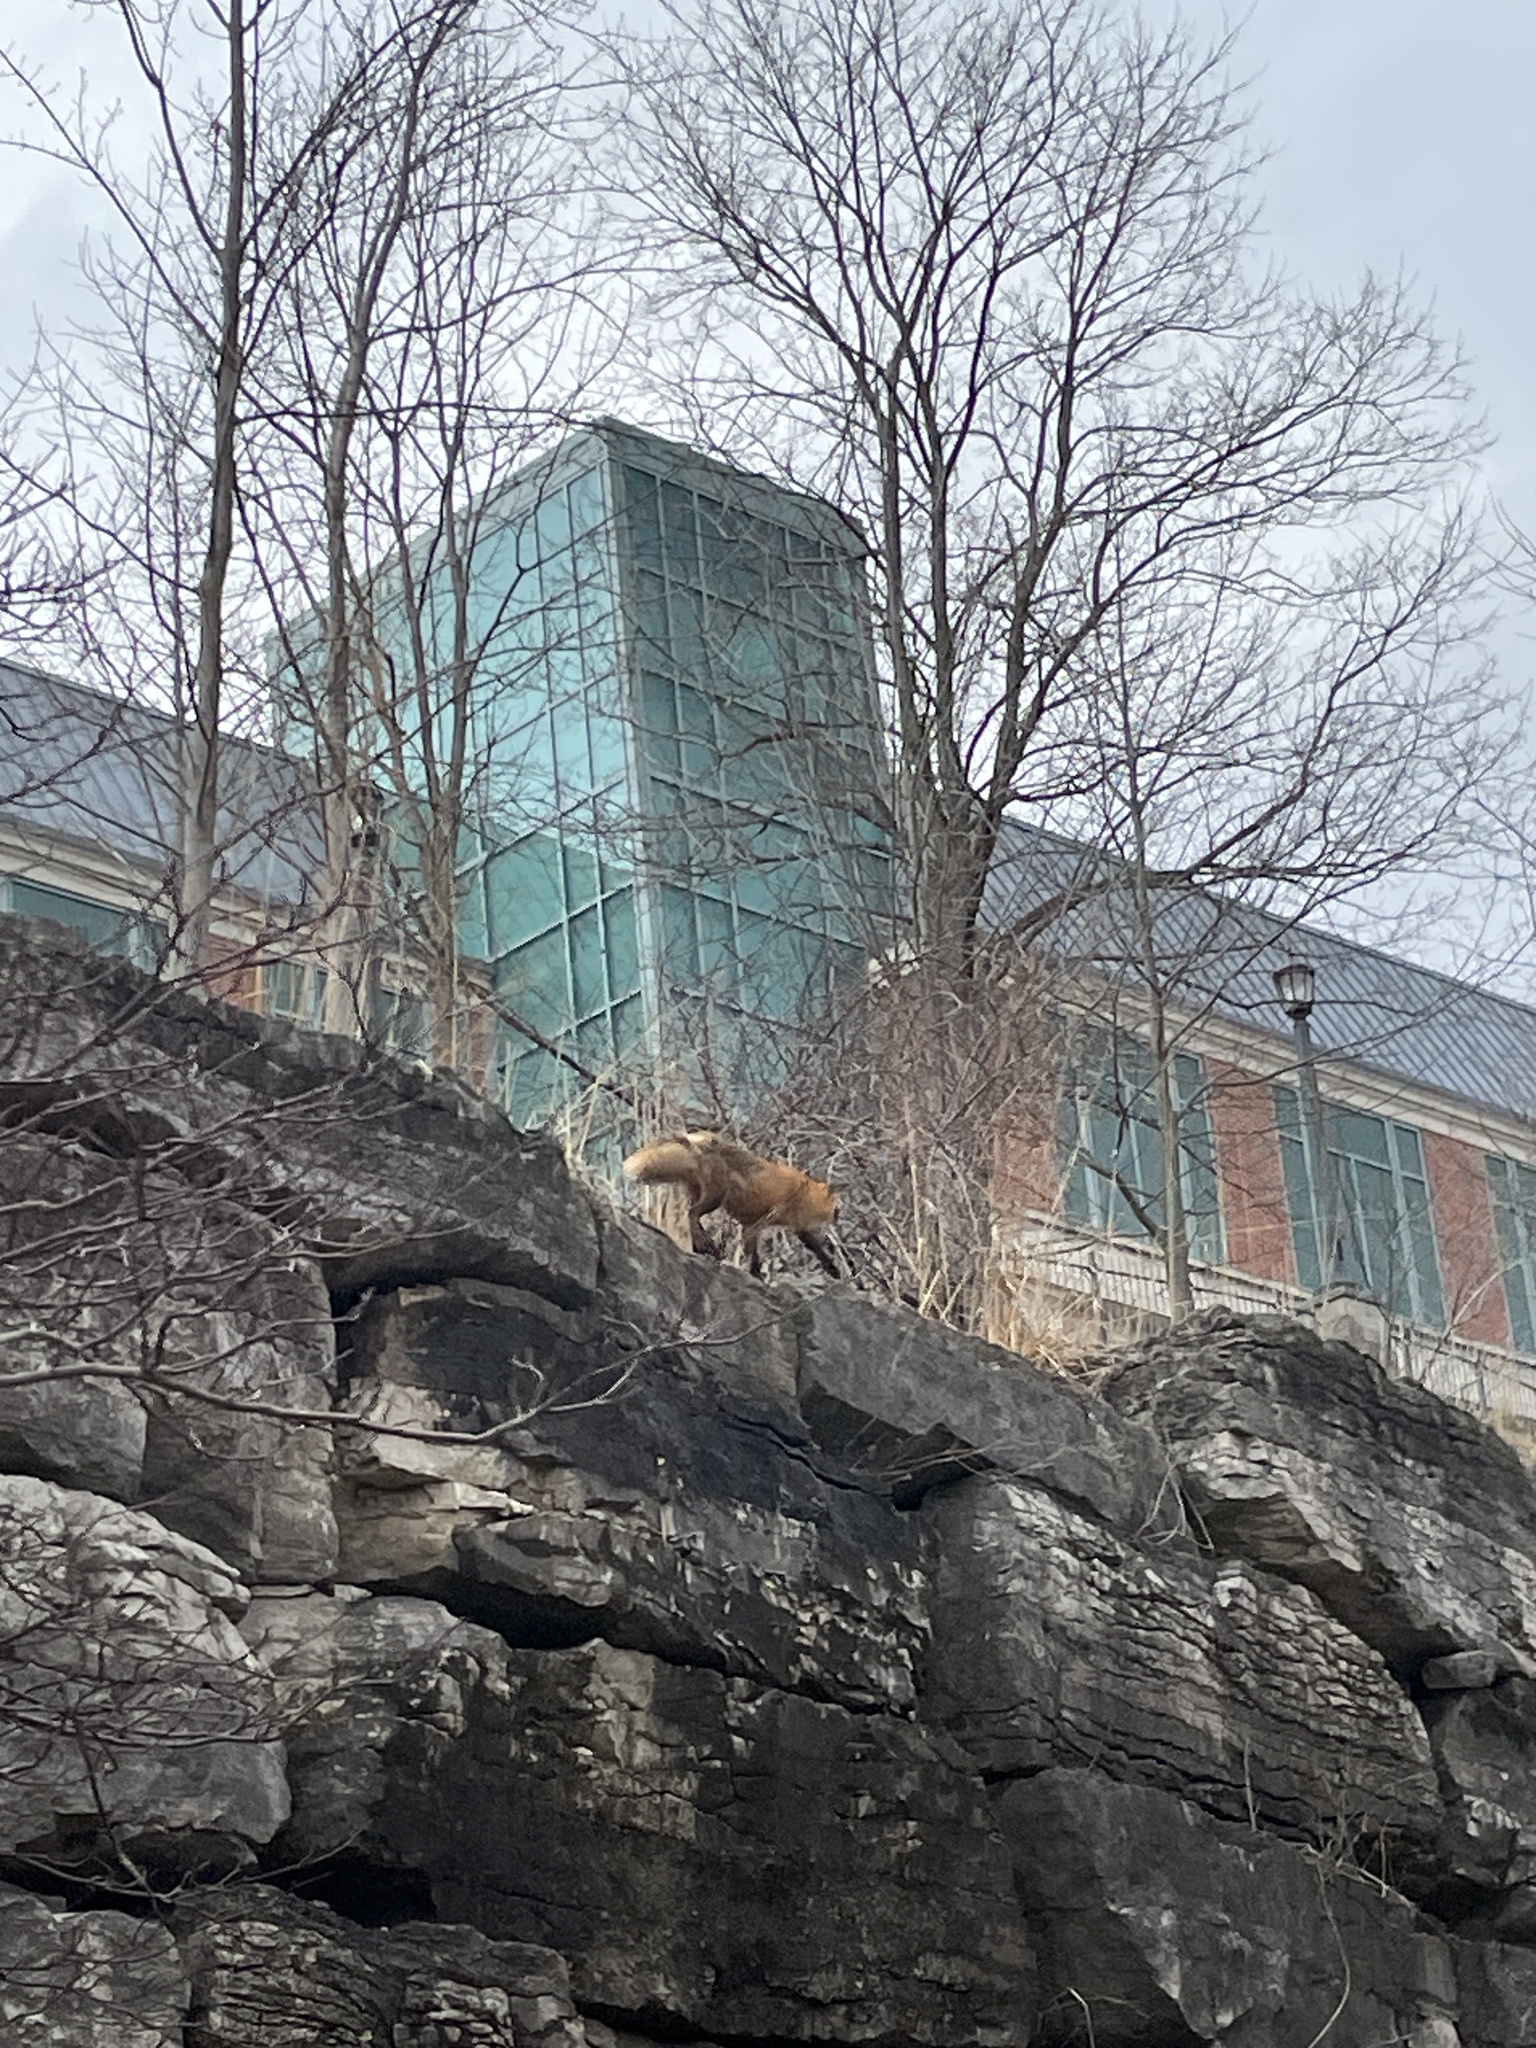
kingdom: Animalia
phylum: Chordata
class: Mammalia
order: Carnivora
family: Canidae
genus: Vulpes
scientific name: Vulpes vulpes
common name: Red fox
